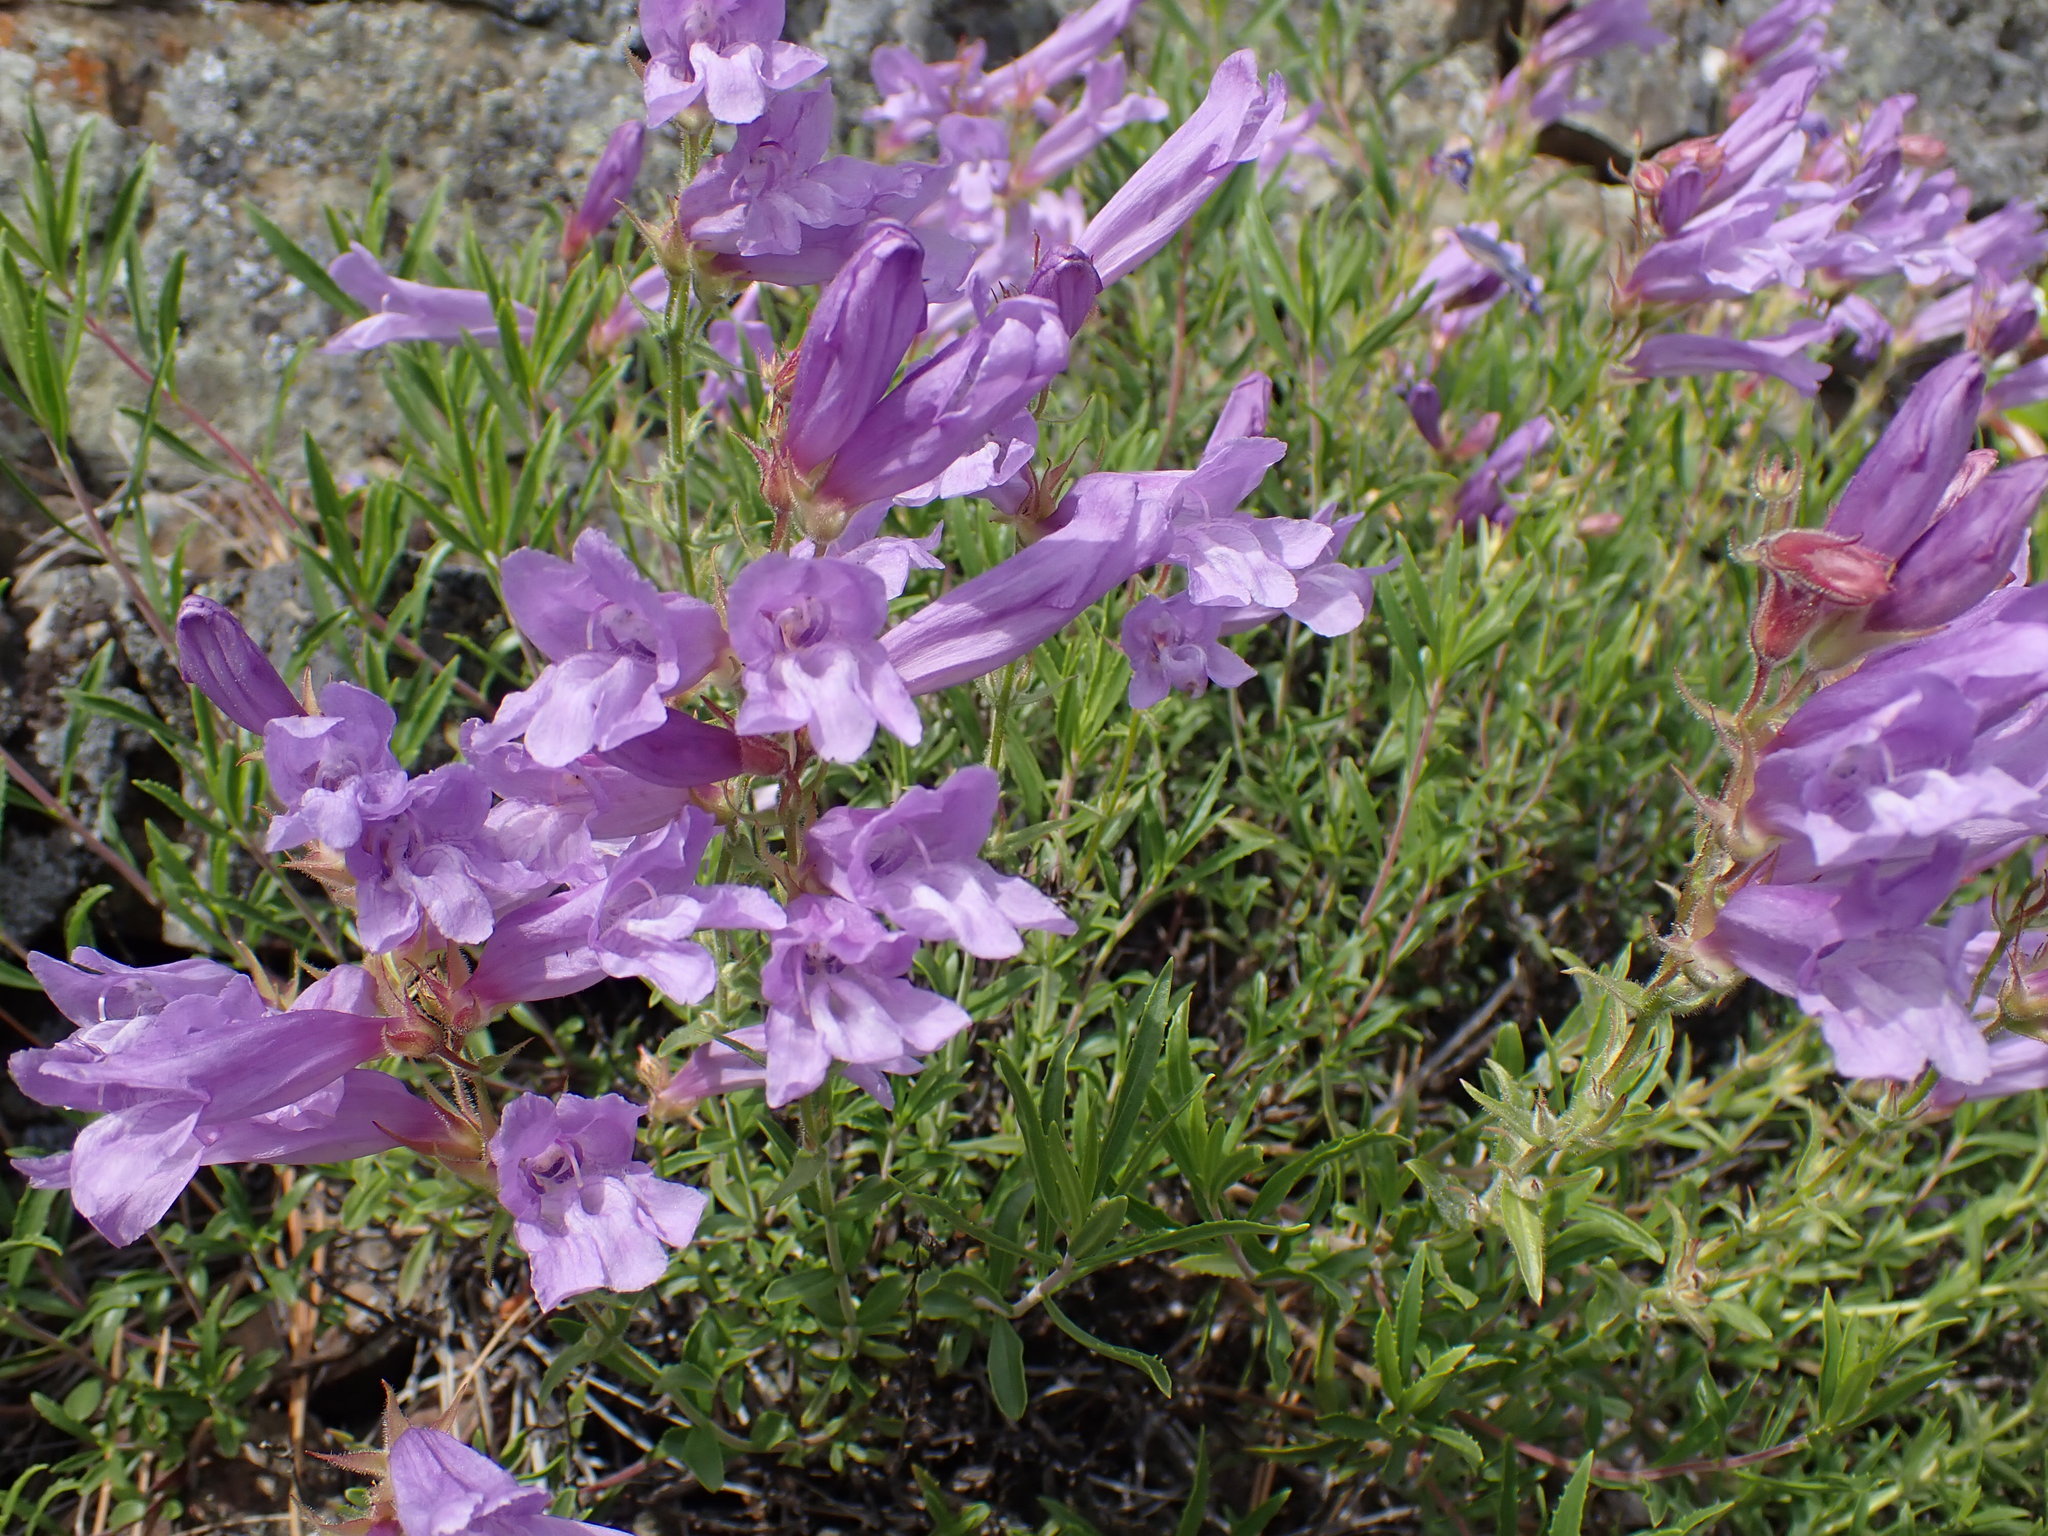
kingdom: Plantae
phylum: Tracheophyta
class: Magnoliopsida
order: Lamiales
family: Plantaginaceae
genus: Penstemon
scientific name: Penstemon fruticosus
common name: Bush penstemon
